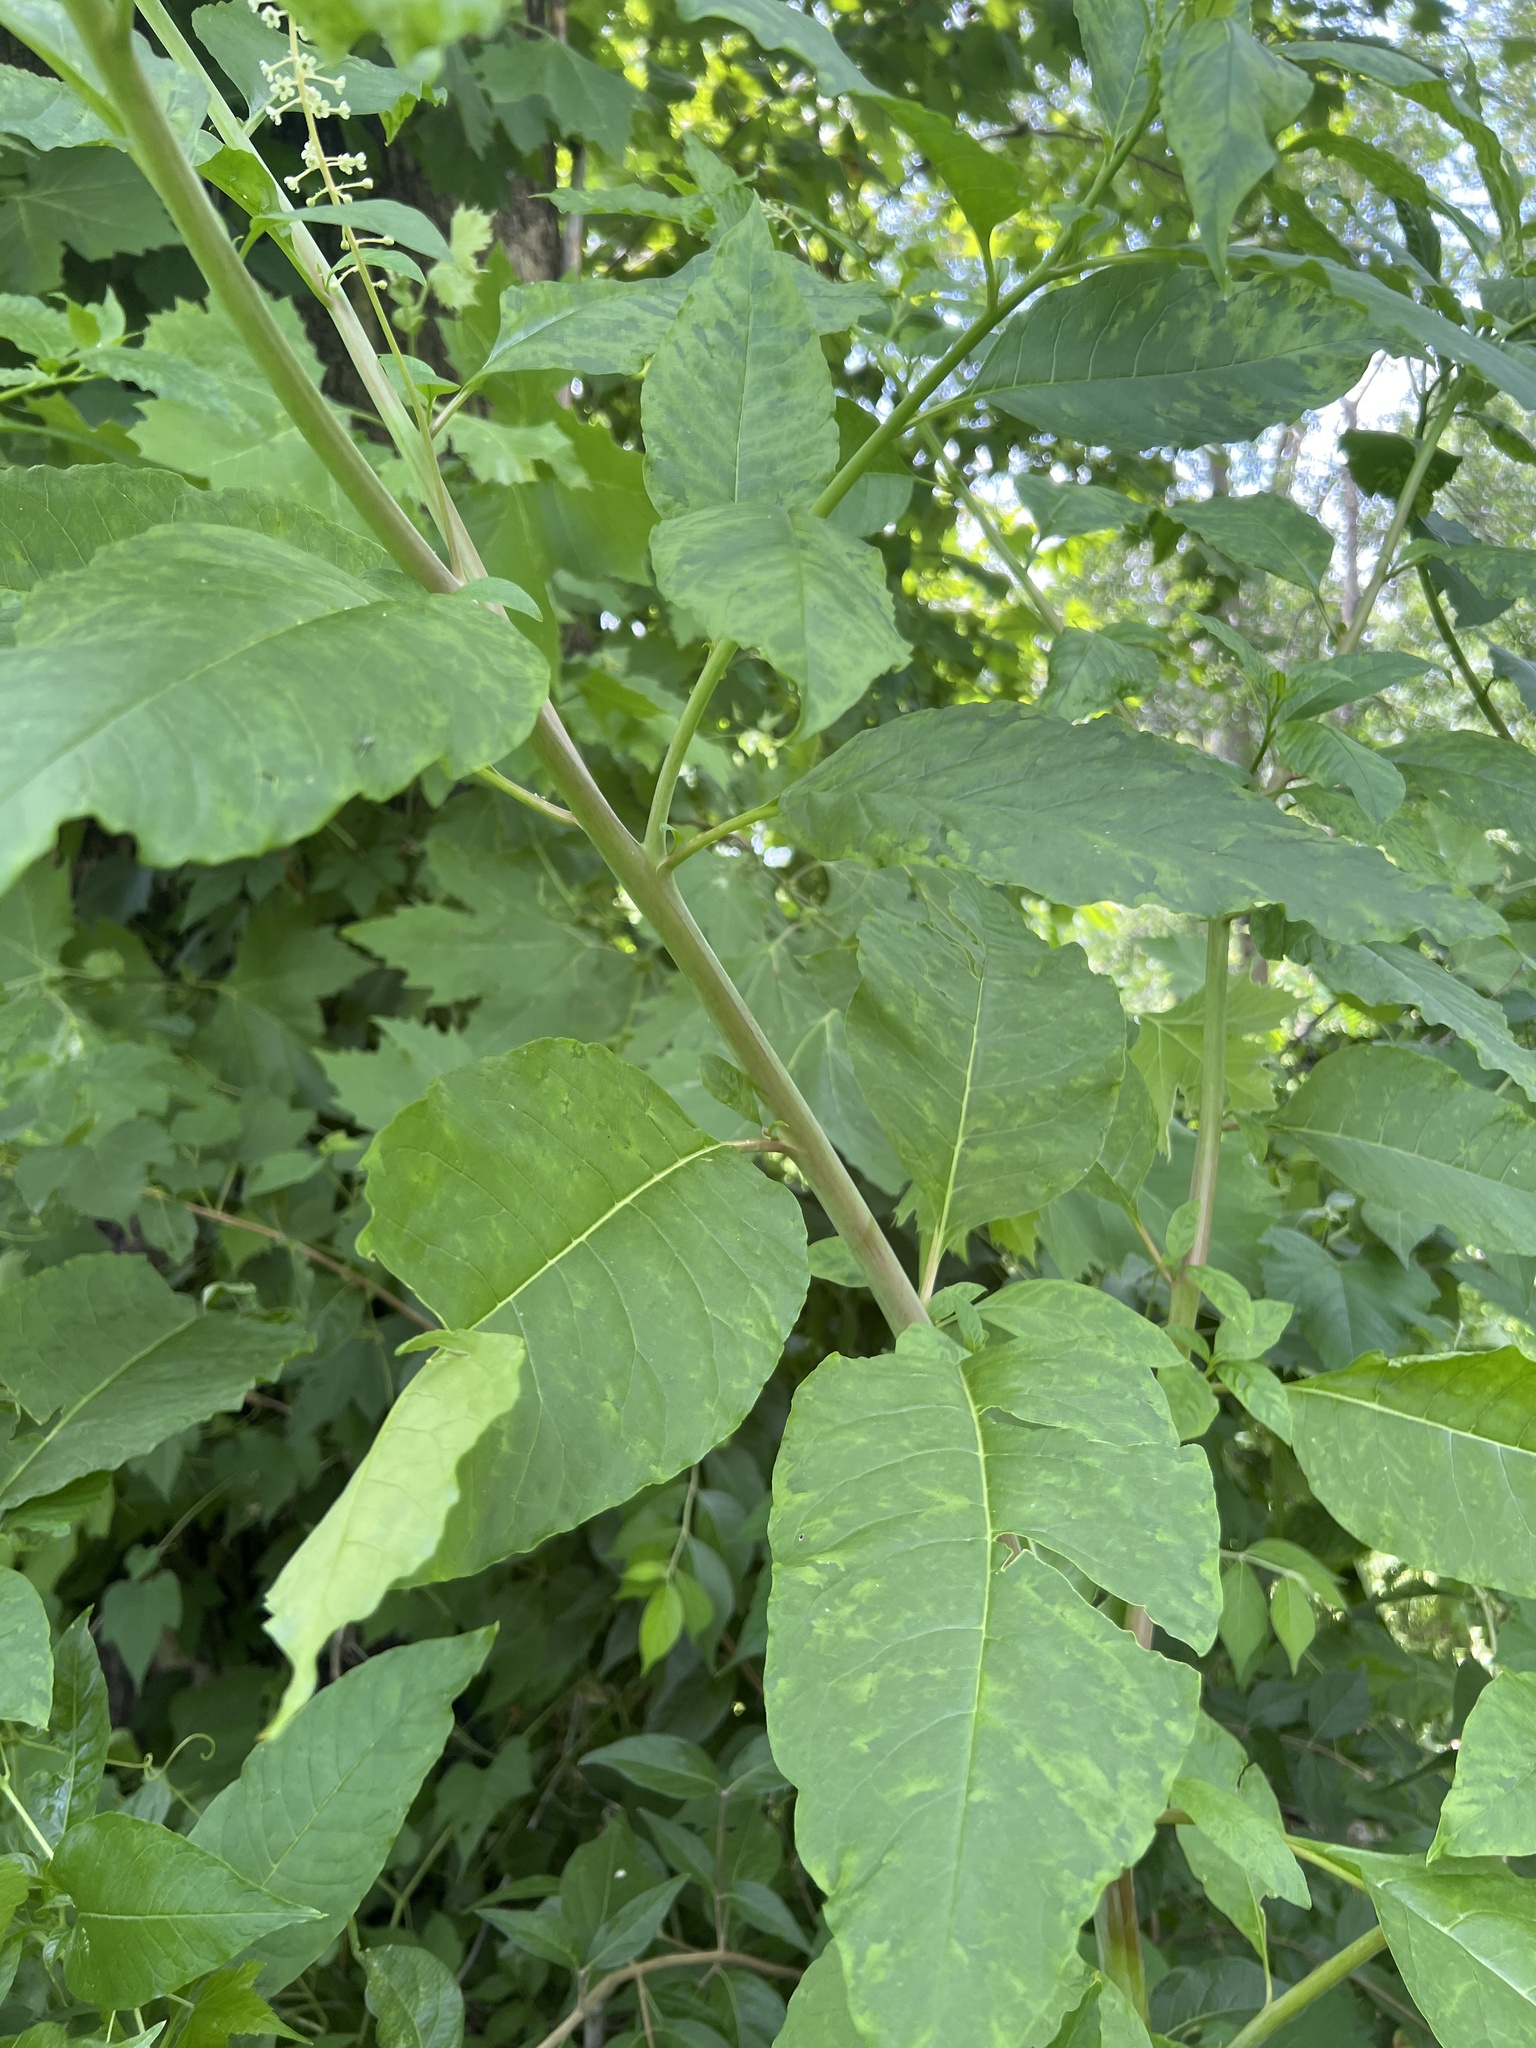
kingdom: Plantae
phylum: Tracheophyta
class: Magnoliopsida
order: Caryophyllales
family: Phytolaccaceae
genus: Phytolacca
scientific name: Phytolacca americana
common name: American pokeweed
